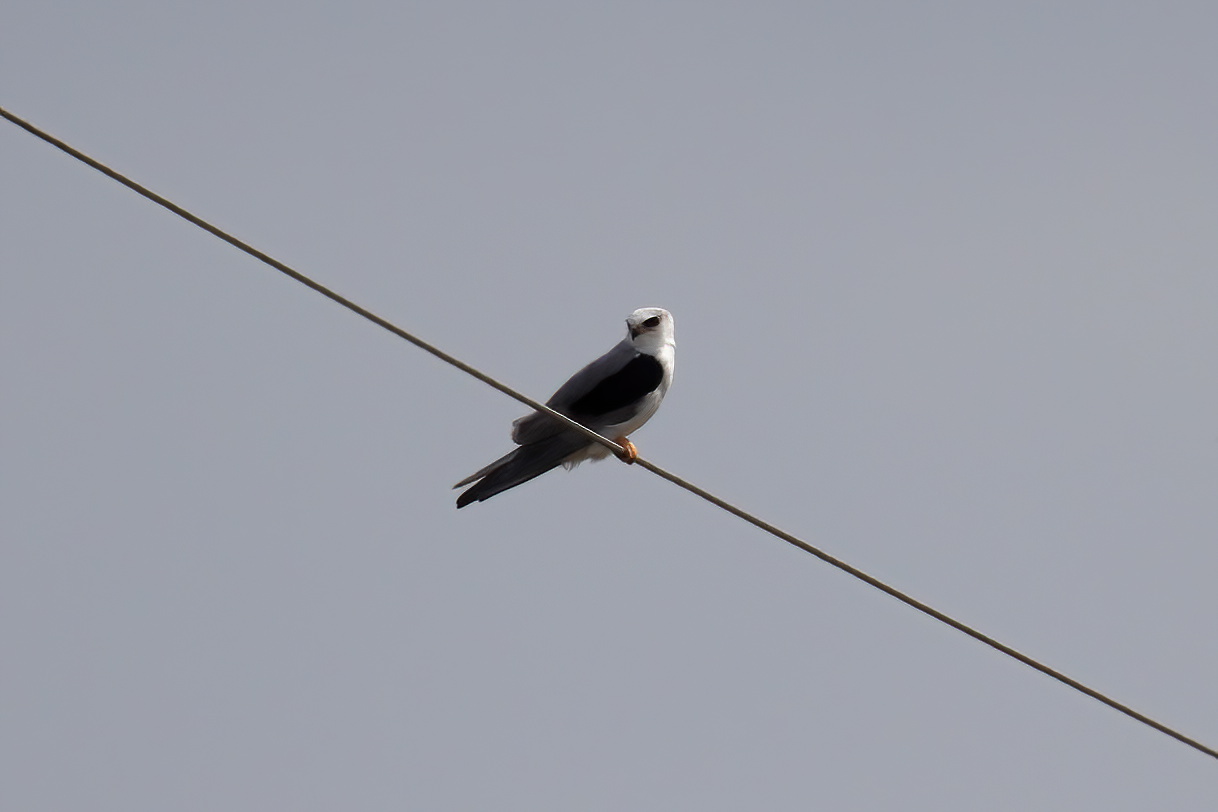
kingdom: Animalia
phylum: Chordata
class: Aves
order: Accipitriformes
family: Accipitridae
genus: Elanus
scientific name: Elanus leucurus
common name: White-tailed kite
